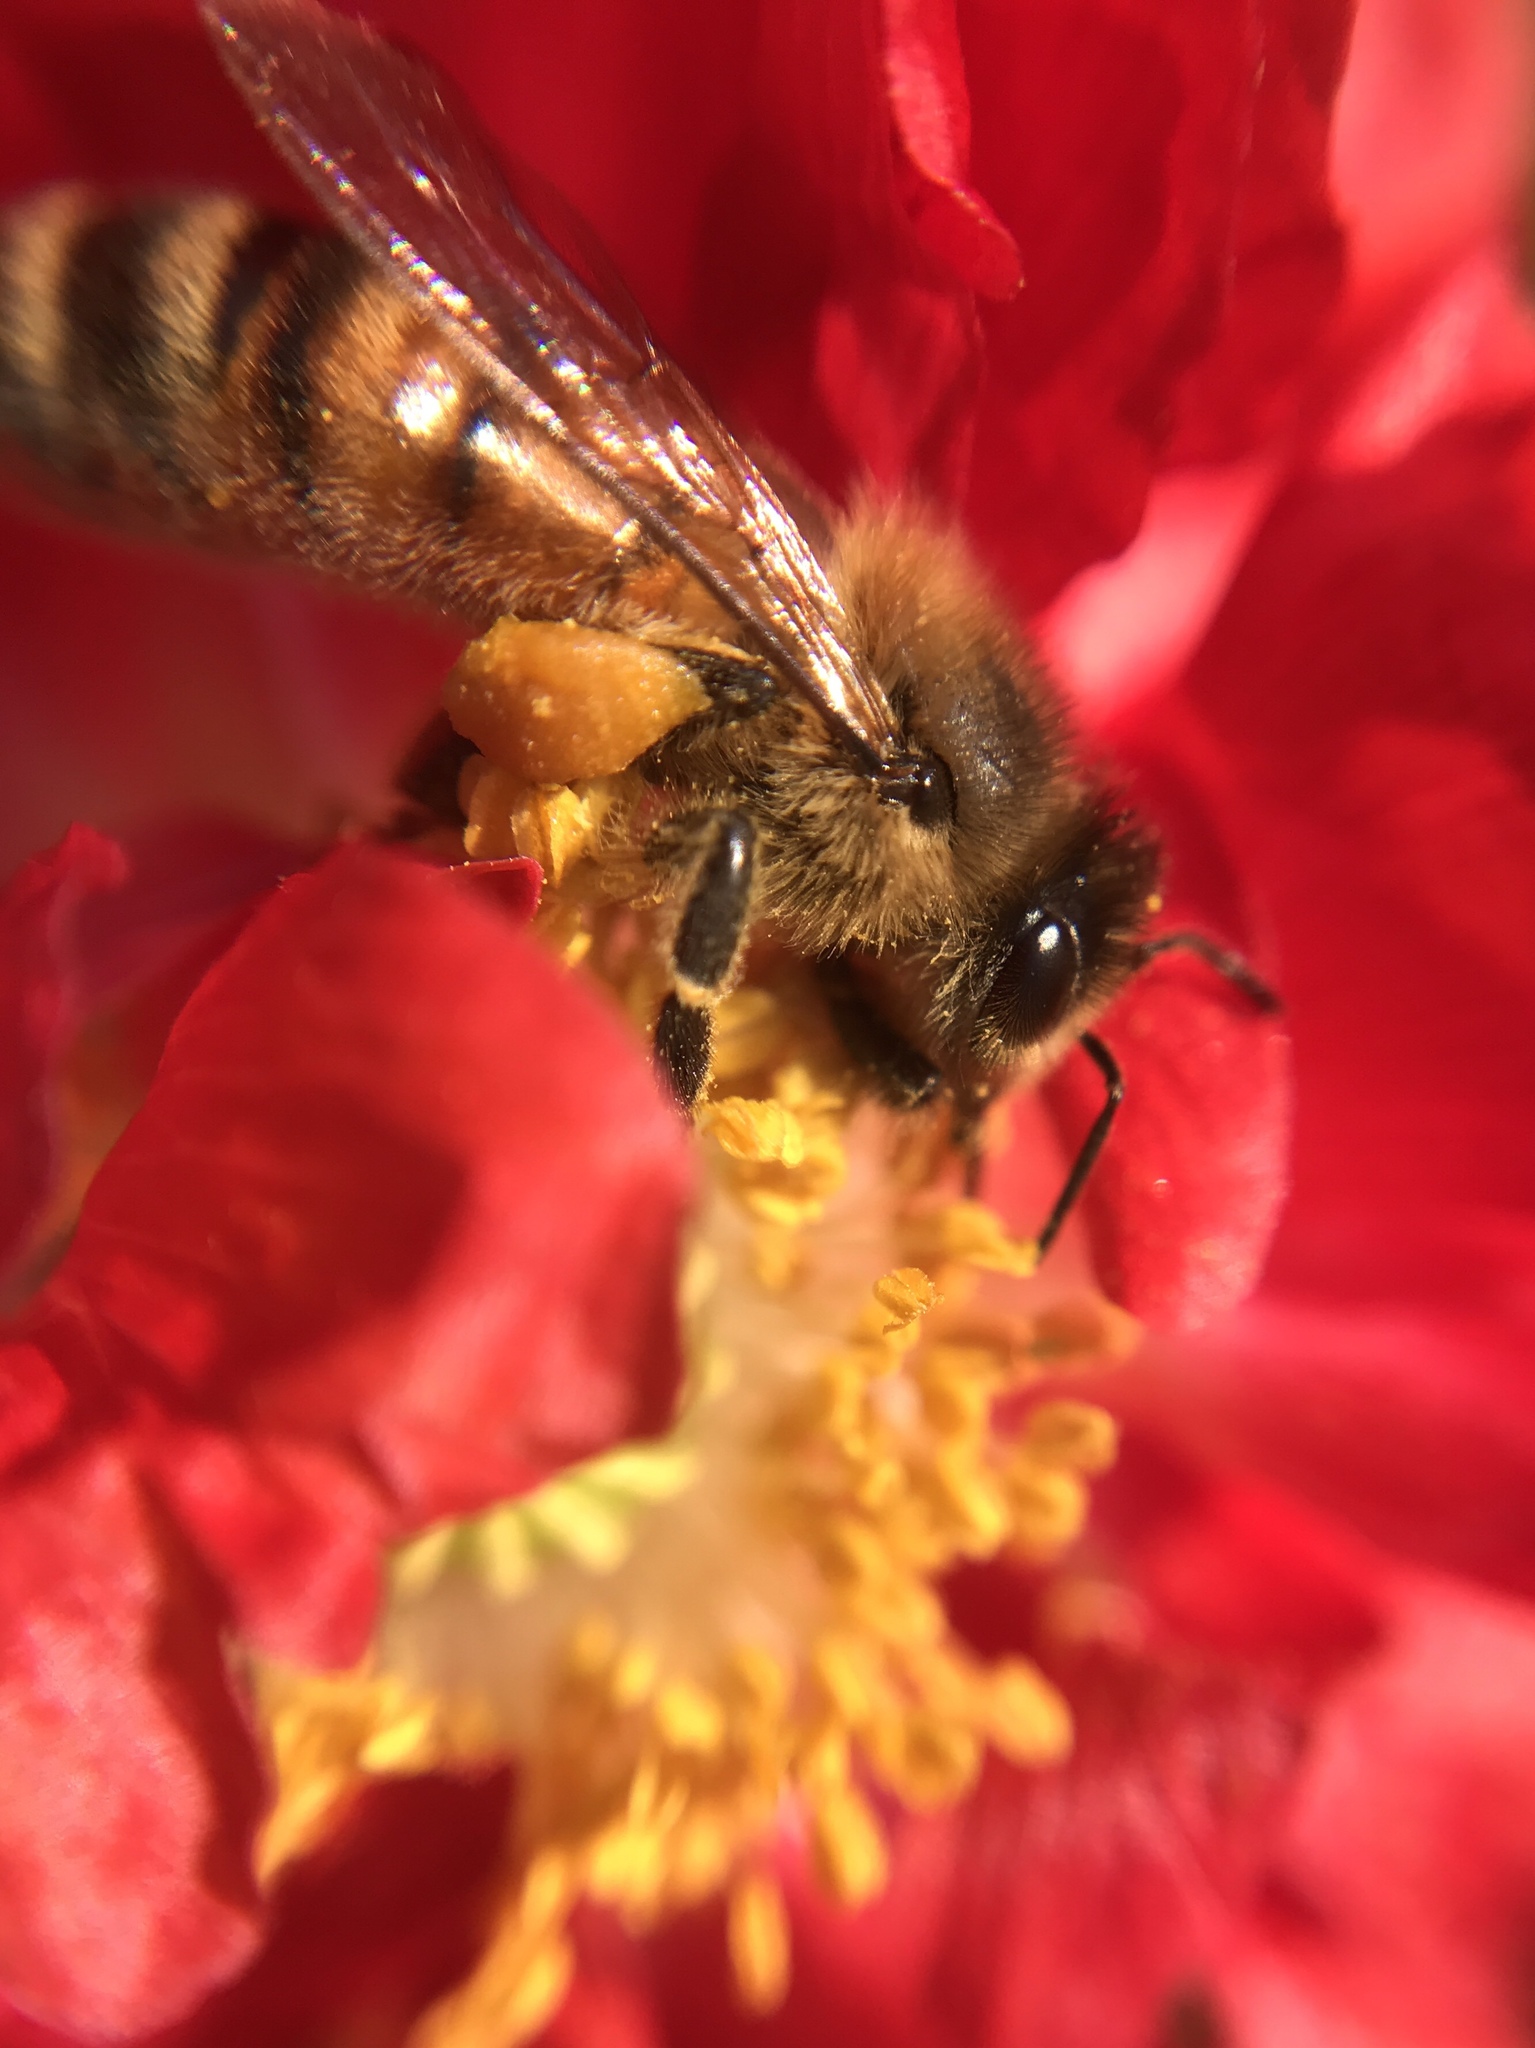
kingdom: Animalia
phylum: Arthropoda
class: Insecta
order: Hymenoptera
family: Apidae
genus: Apis
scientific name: Apis mellifera
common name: Honey bee
